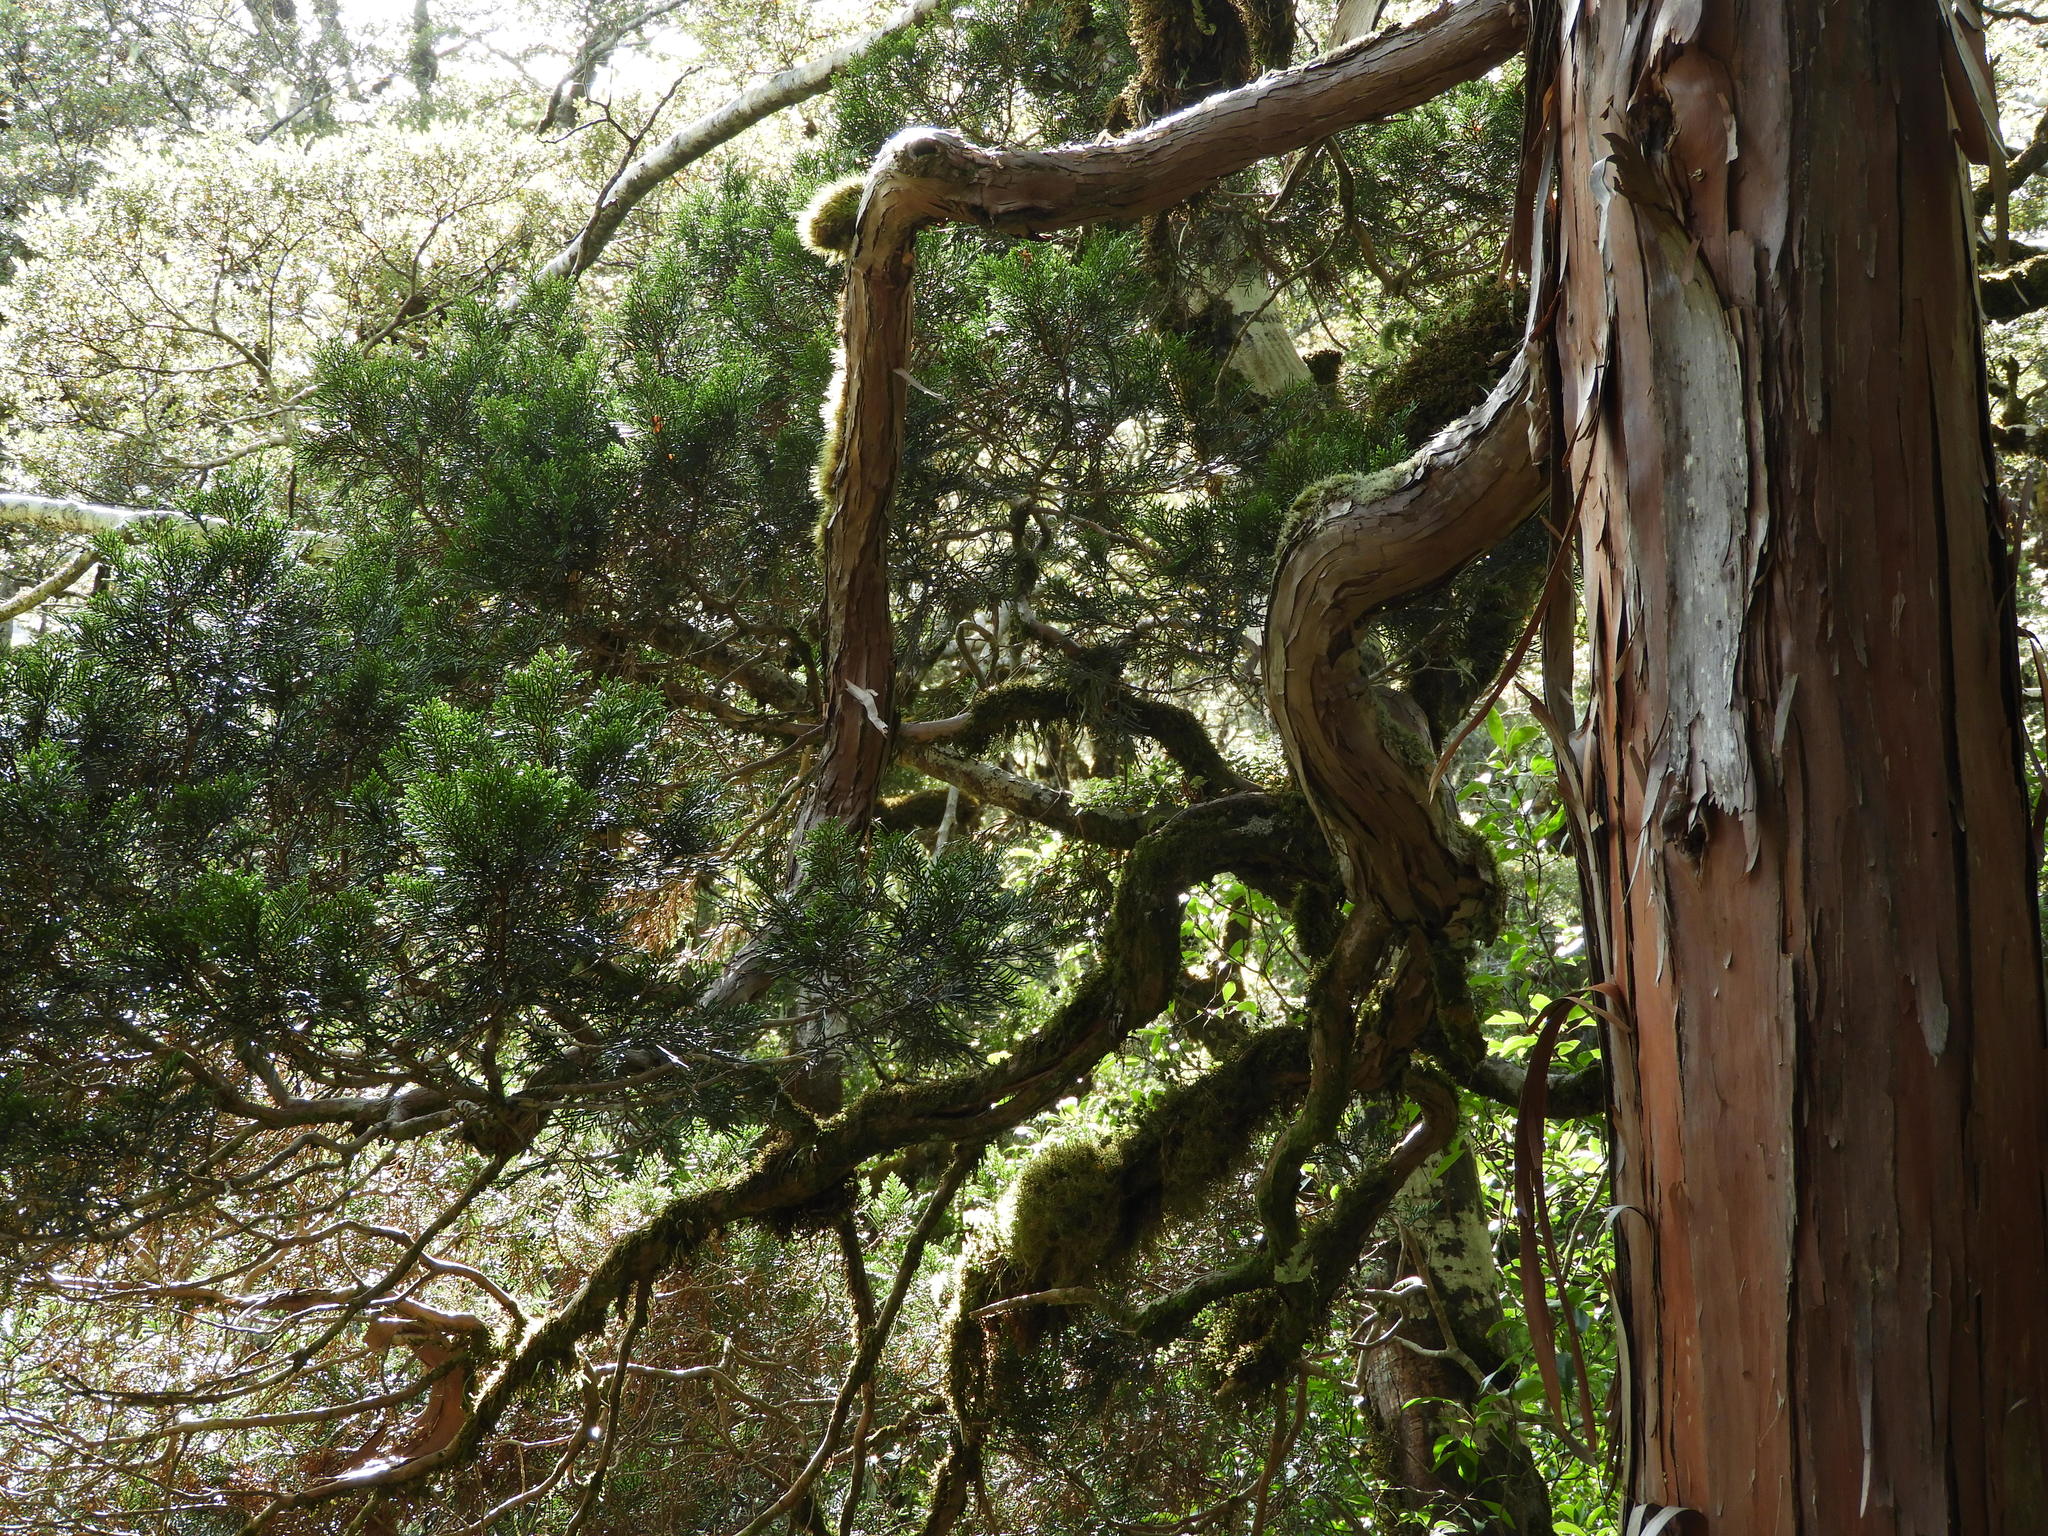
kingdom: Plantae
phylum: Tracheophyta
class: Pinopsida
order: Pinales
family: Cupressaceae
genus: Libocedrus
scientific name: Libocedrus bidwillii
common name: Cedar
